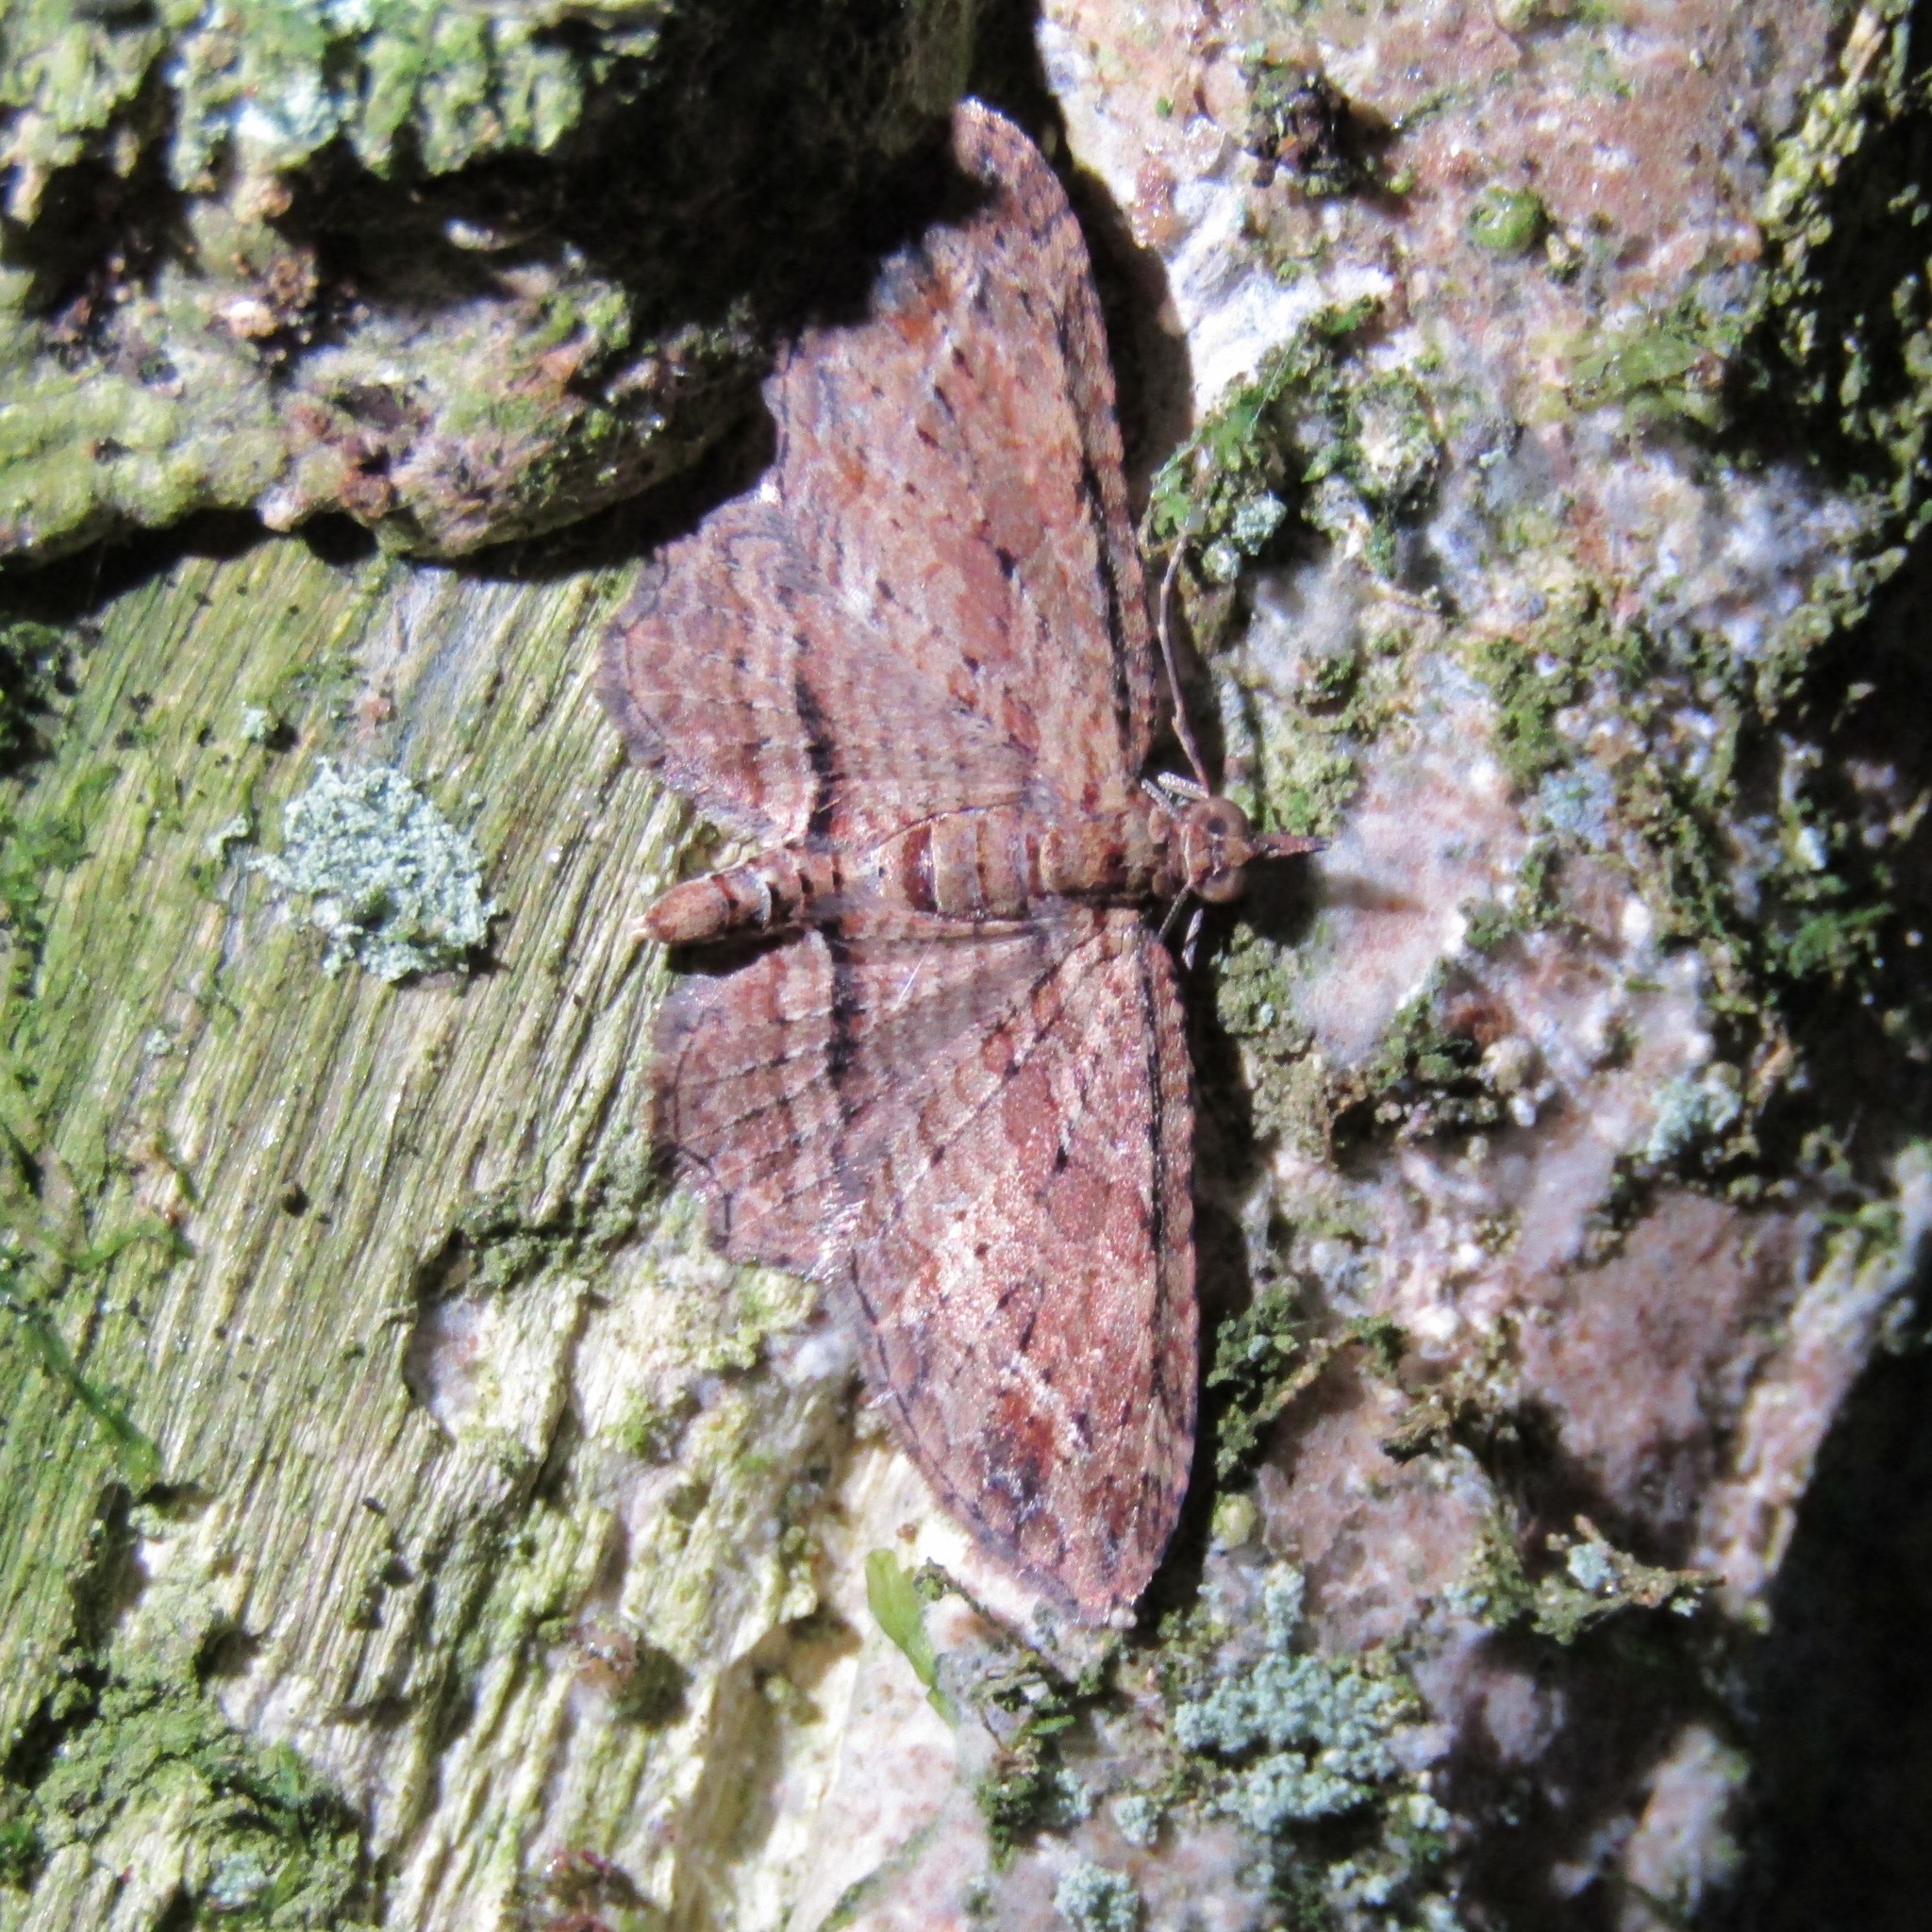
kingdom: Animalia
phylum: Arthropoda
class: Insecta
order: Lepidoptera
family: Geometridae
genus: Chloroclystis
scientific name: Chloroclystis filata
